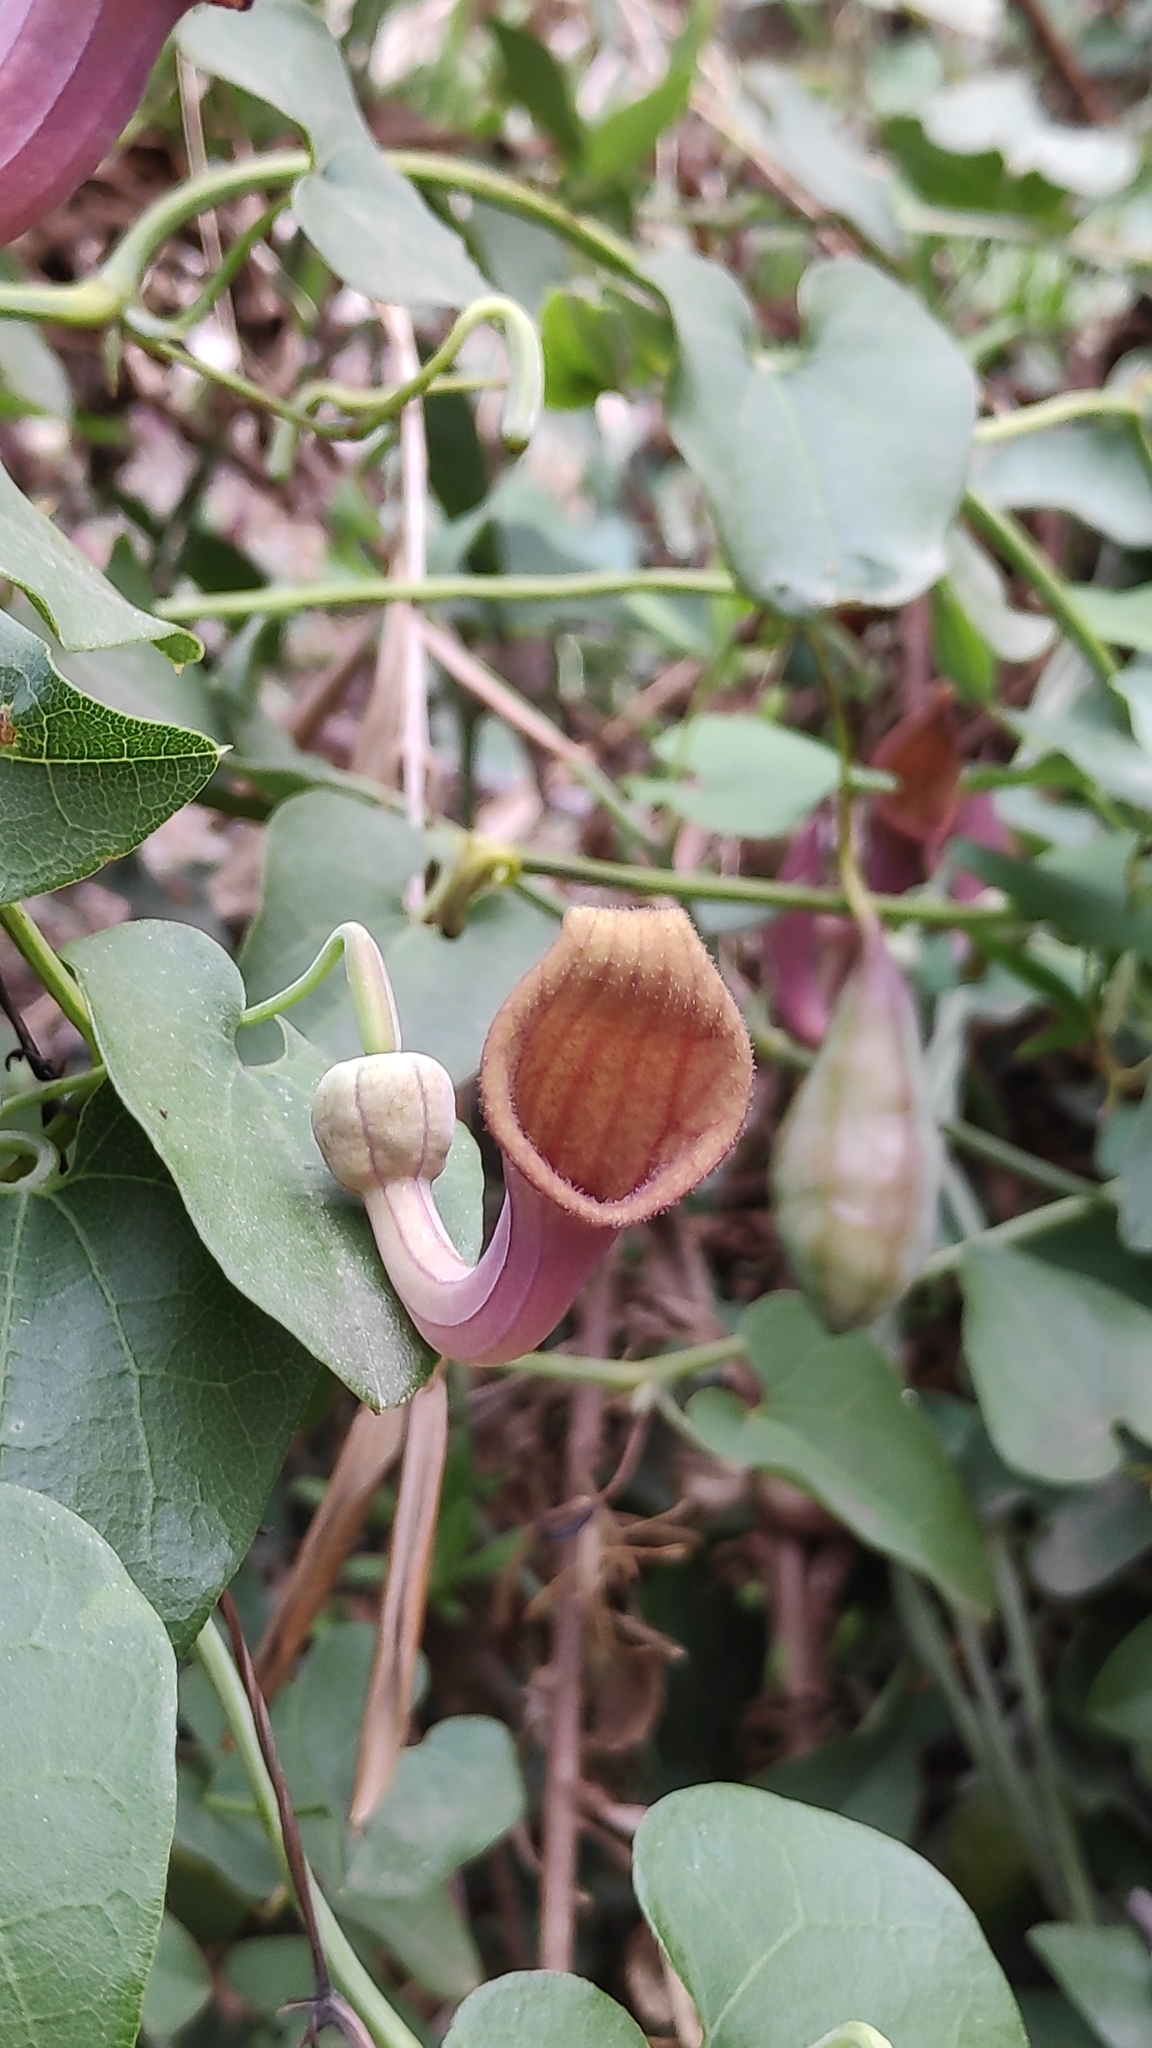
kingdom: Plantae
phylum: Tracheophyta
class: Magnoliopsida
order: Piperales
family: Aristolochiaceae
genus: Aristolochia
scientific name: Aristolochia baetica
